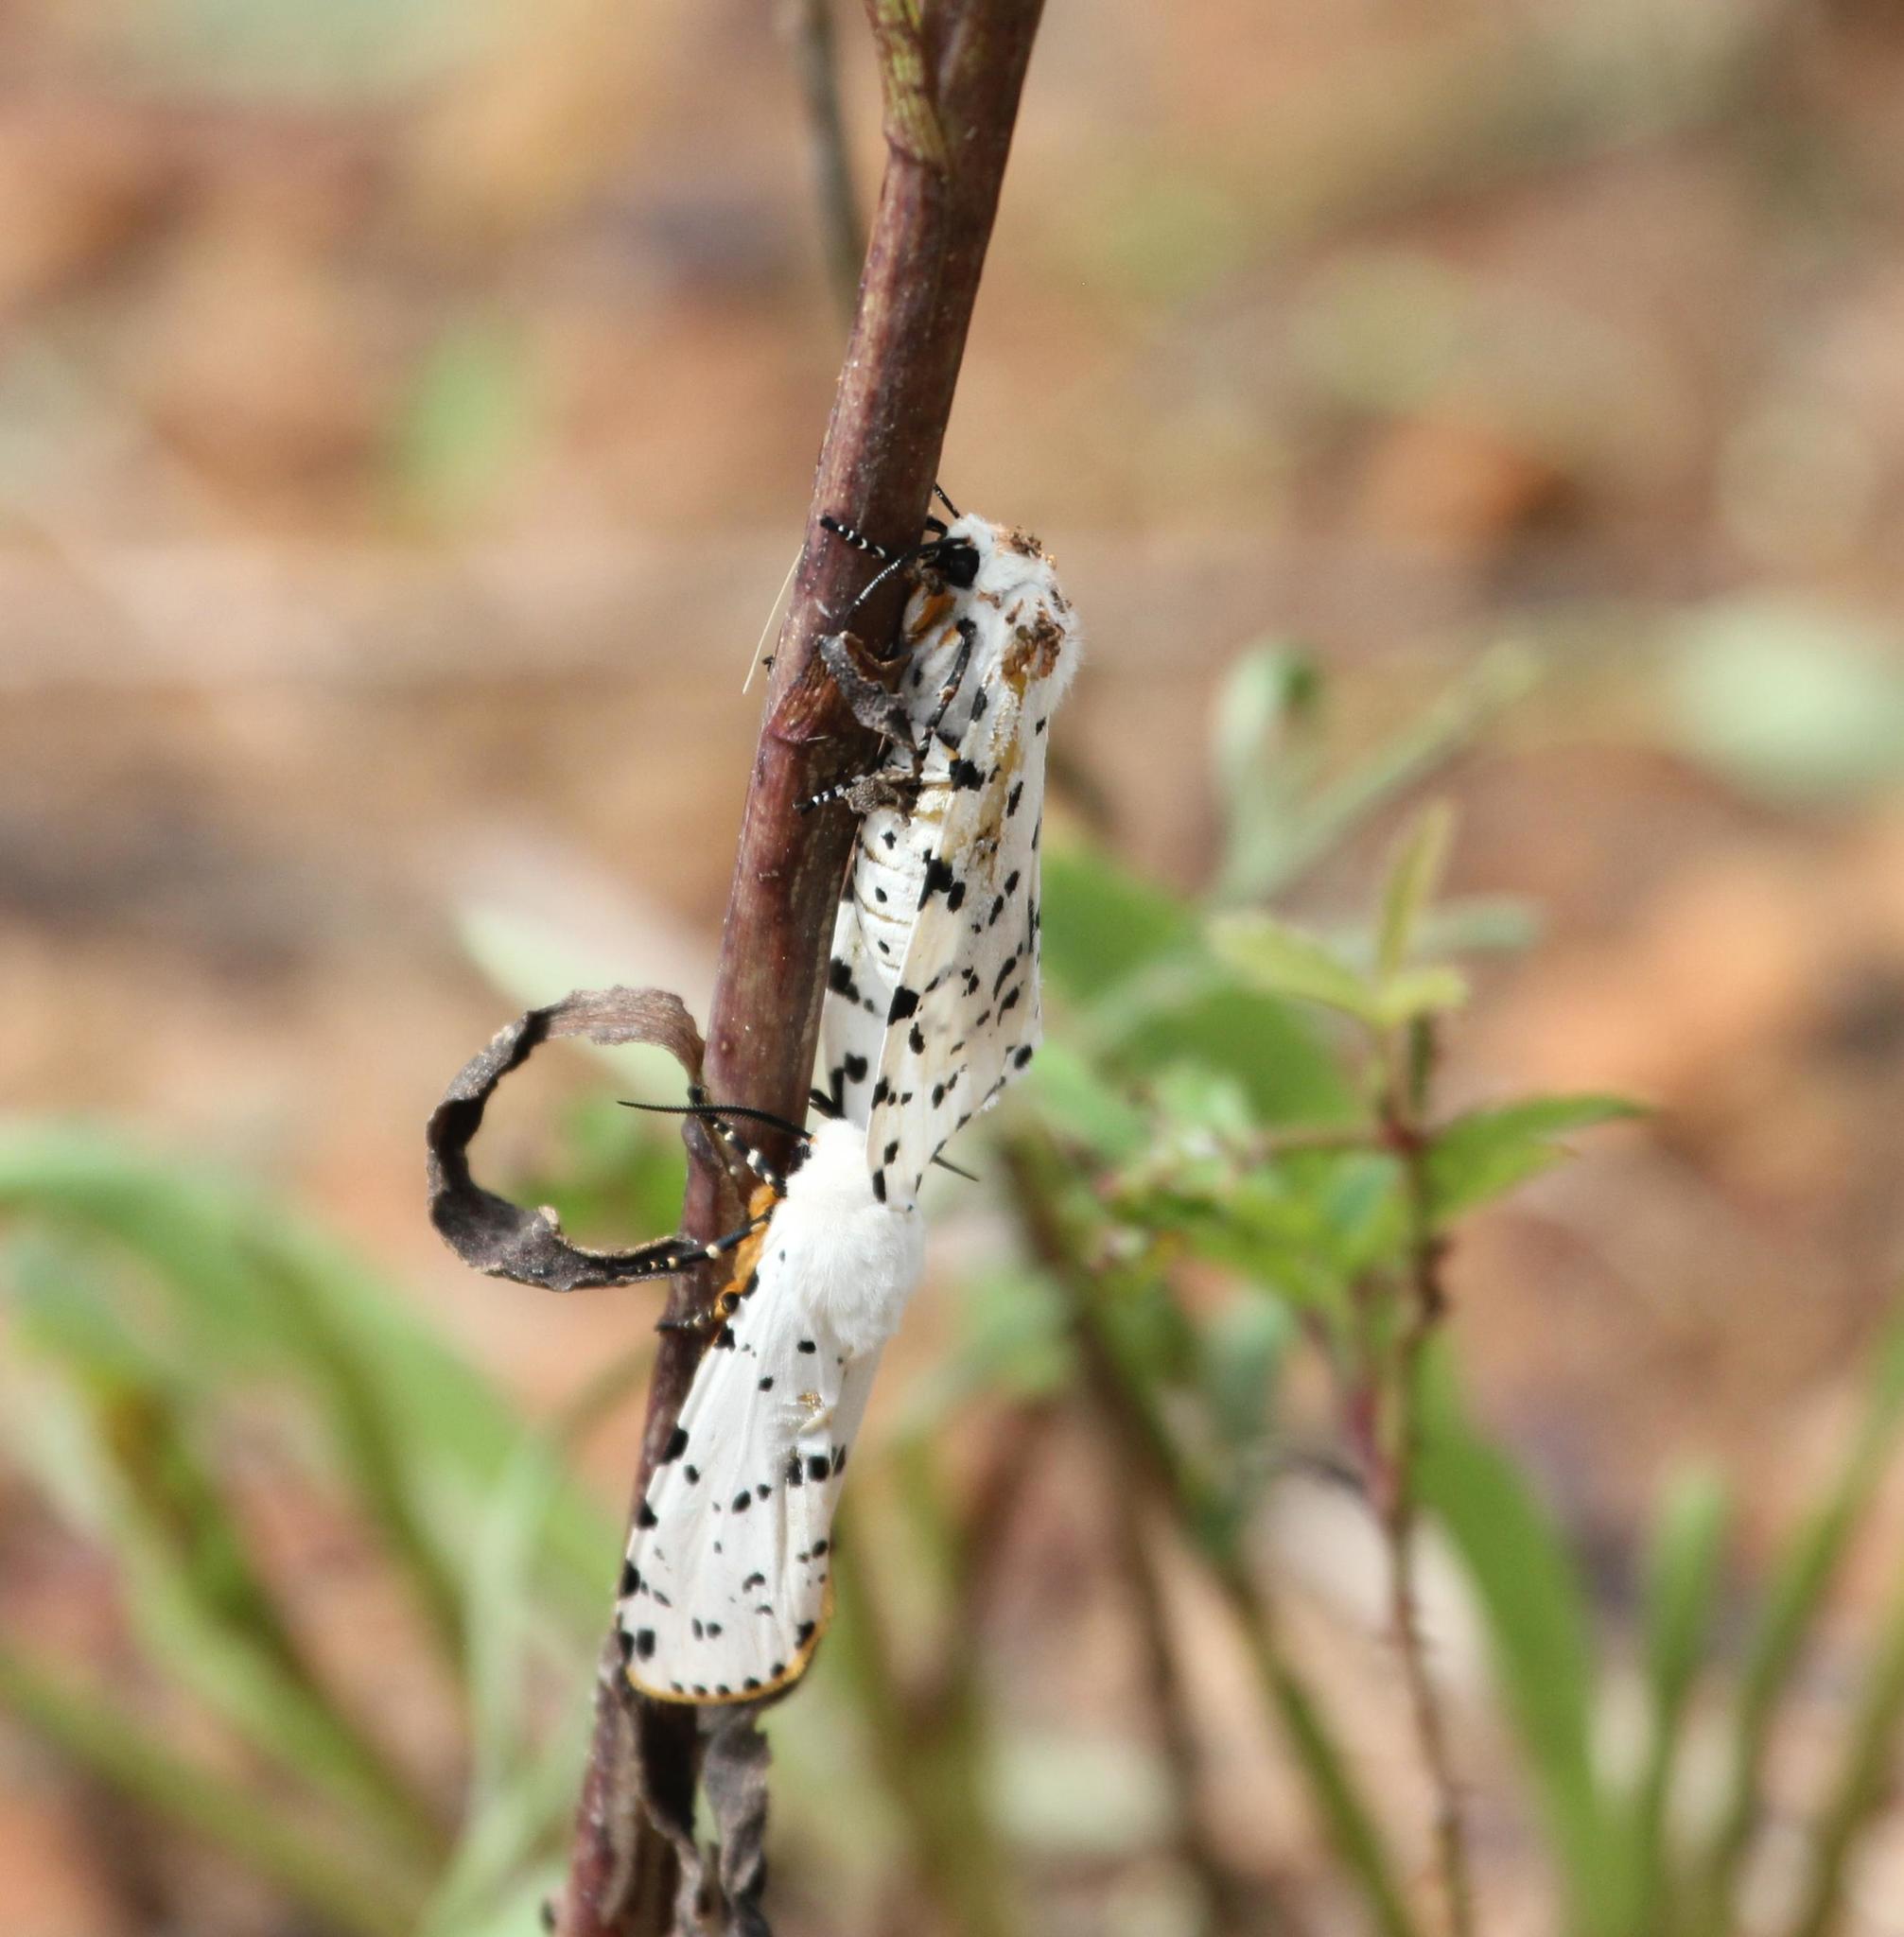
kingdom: Animalia
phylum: Arthropoda
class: Insecta
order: Lepidoptera
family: Erebidae
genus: Estigmene
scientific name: Estigmene acrea
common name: Salt marsh moth
